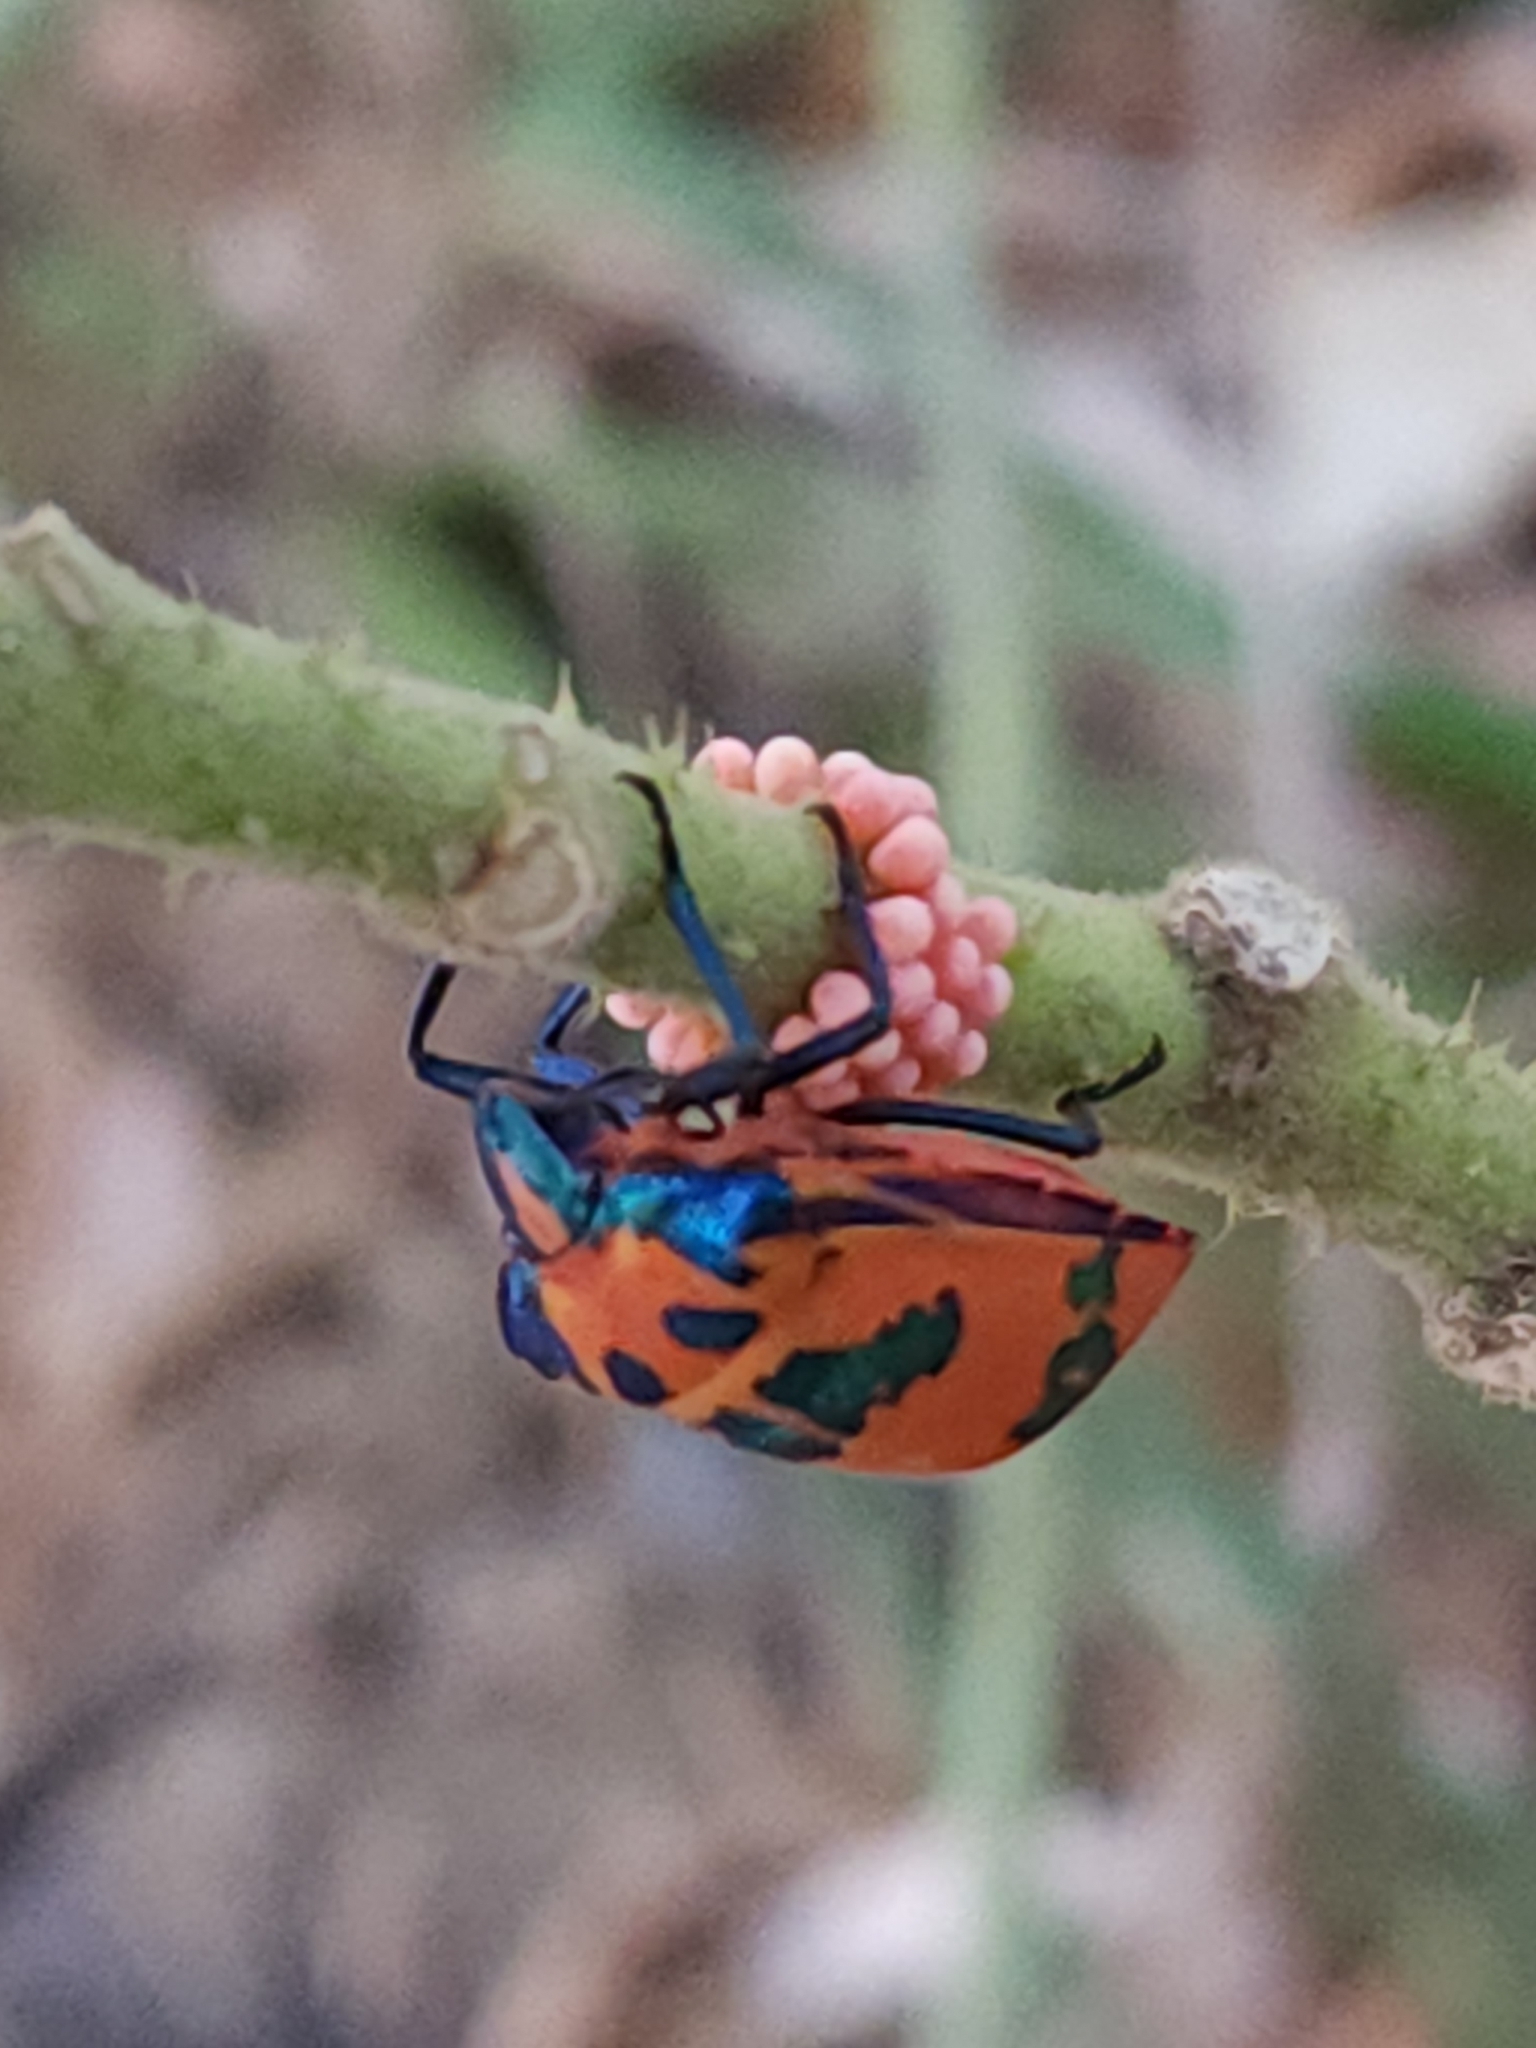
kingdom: Animalia
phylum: Arthropoda
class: Insecta
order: Hemiptera
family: Scutelleridae
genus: Tectocoris
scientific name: Tectocoris diophthalmus
